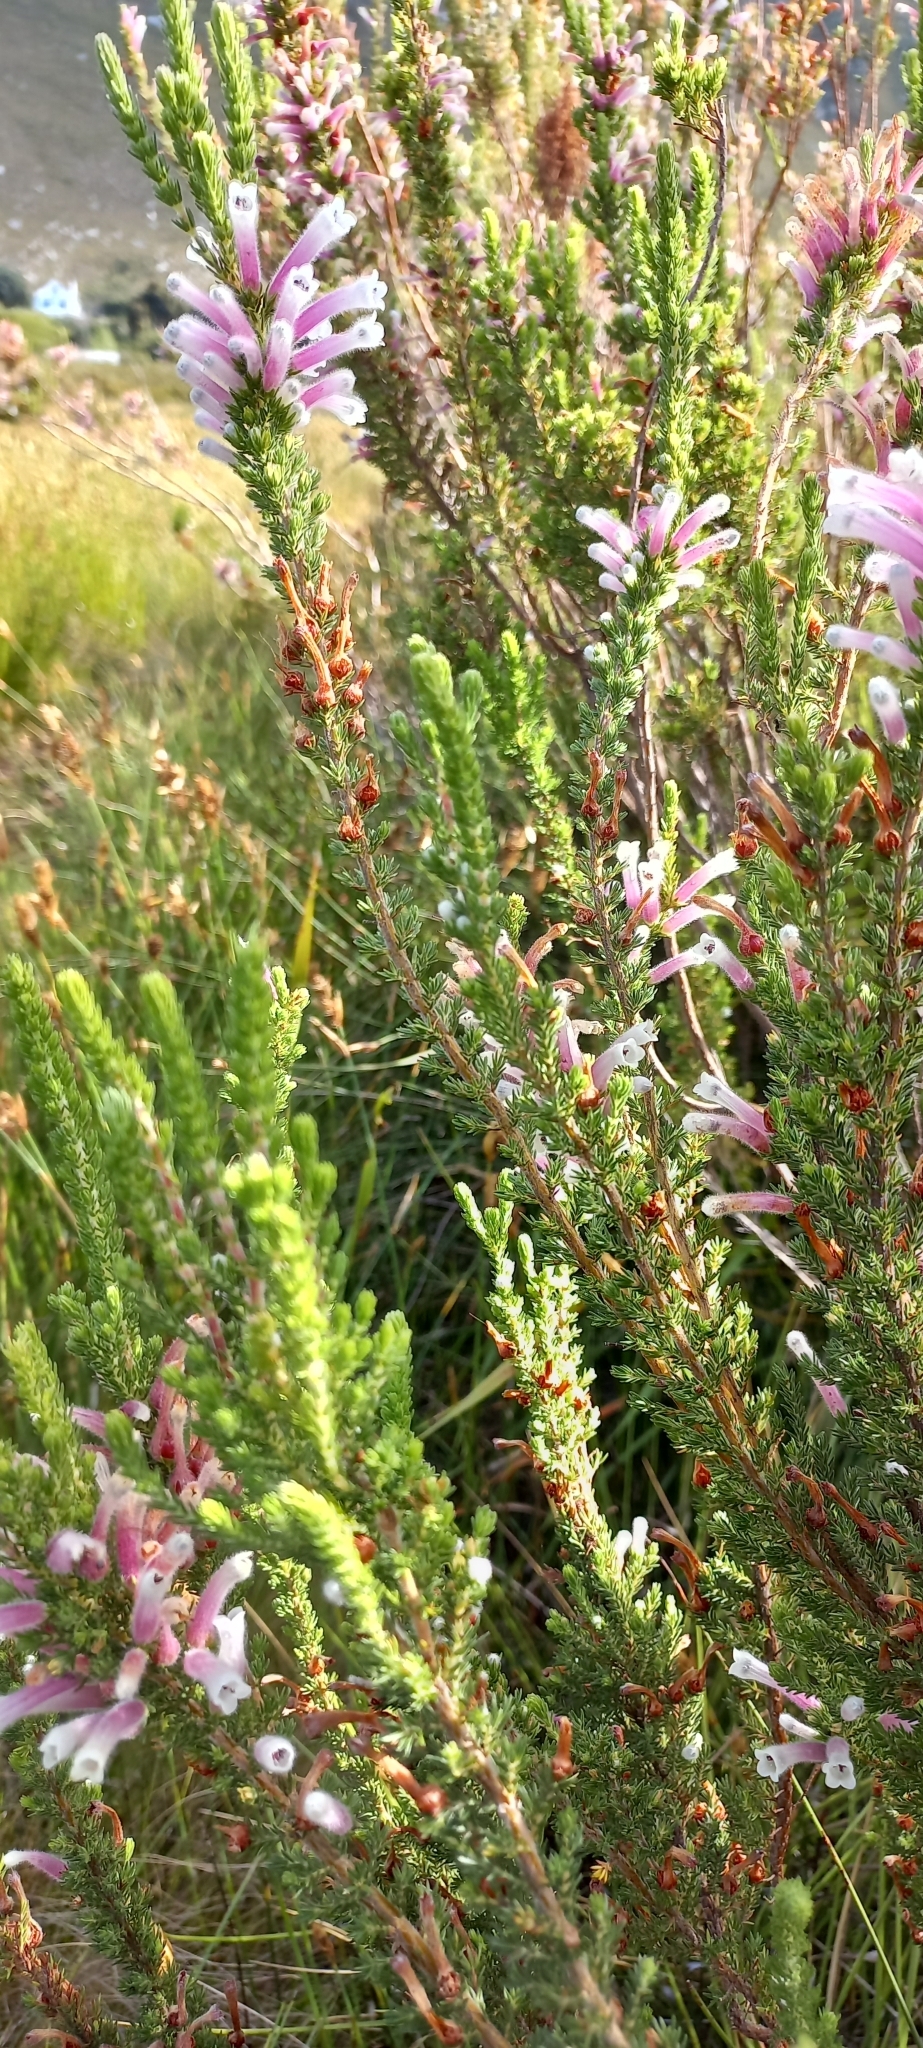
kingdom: Plantae
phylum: Tracheophyta
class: Magnoliopsida
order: Ericales
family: Ericaceae
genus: Erica
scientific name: Erica perspicua
